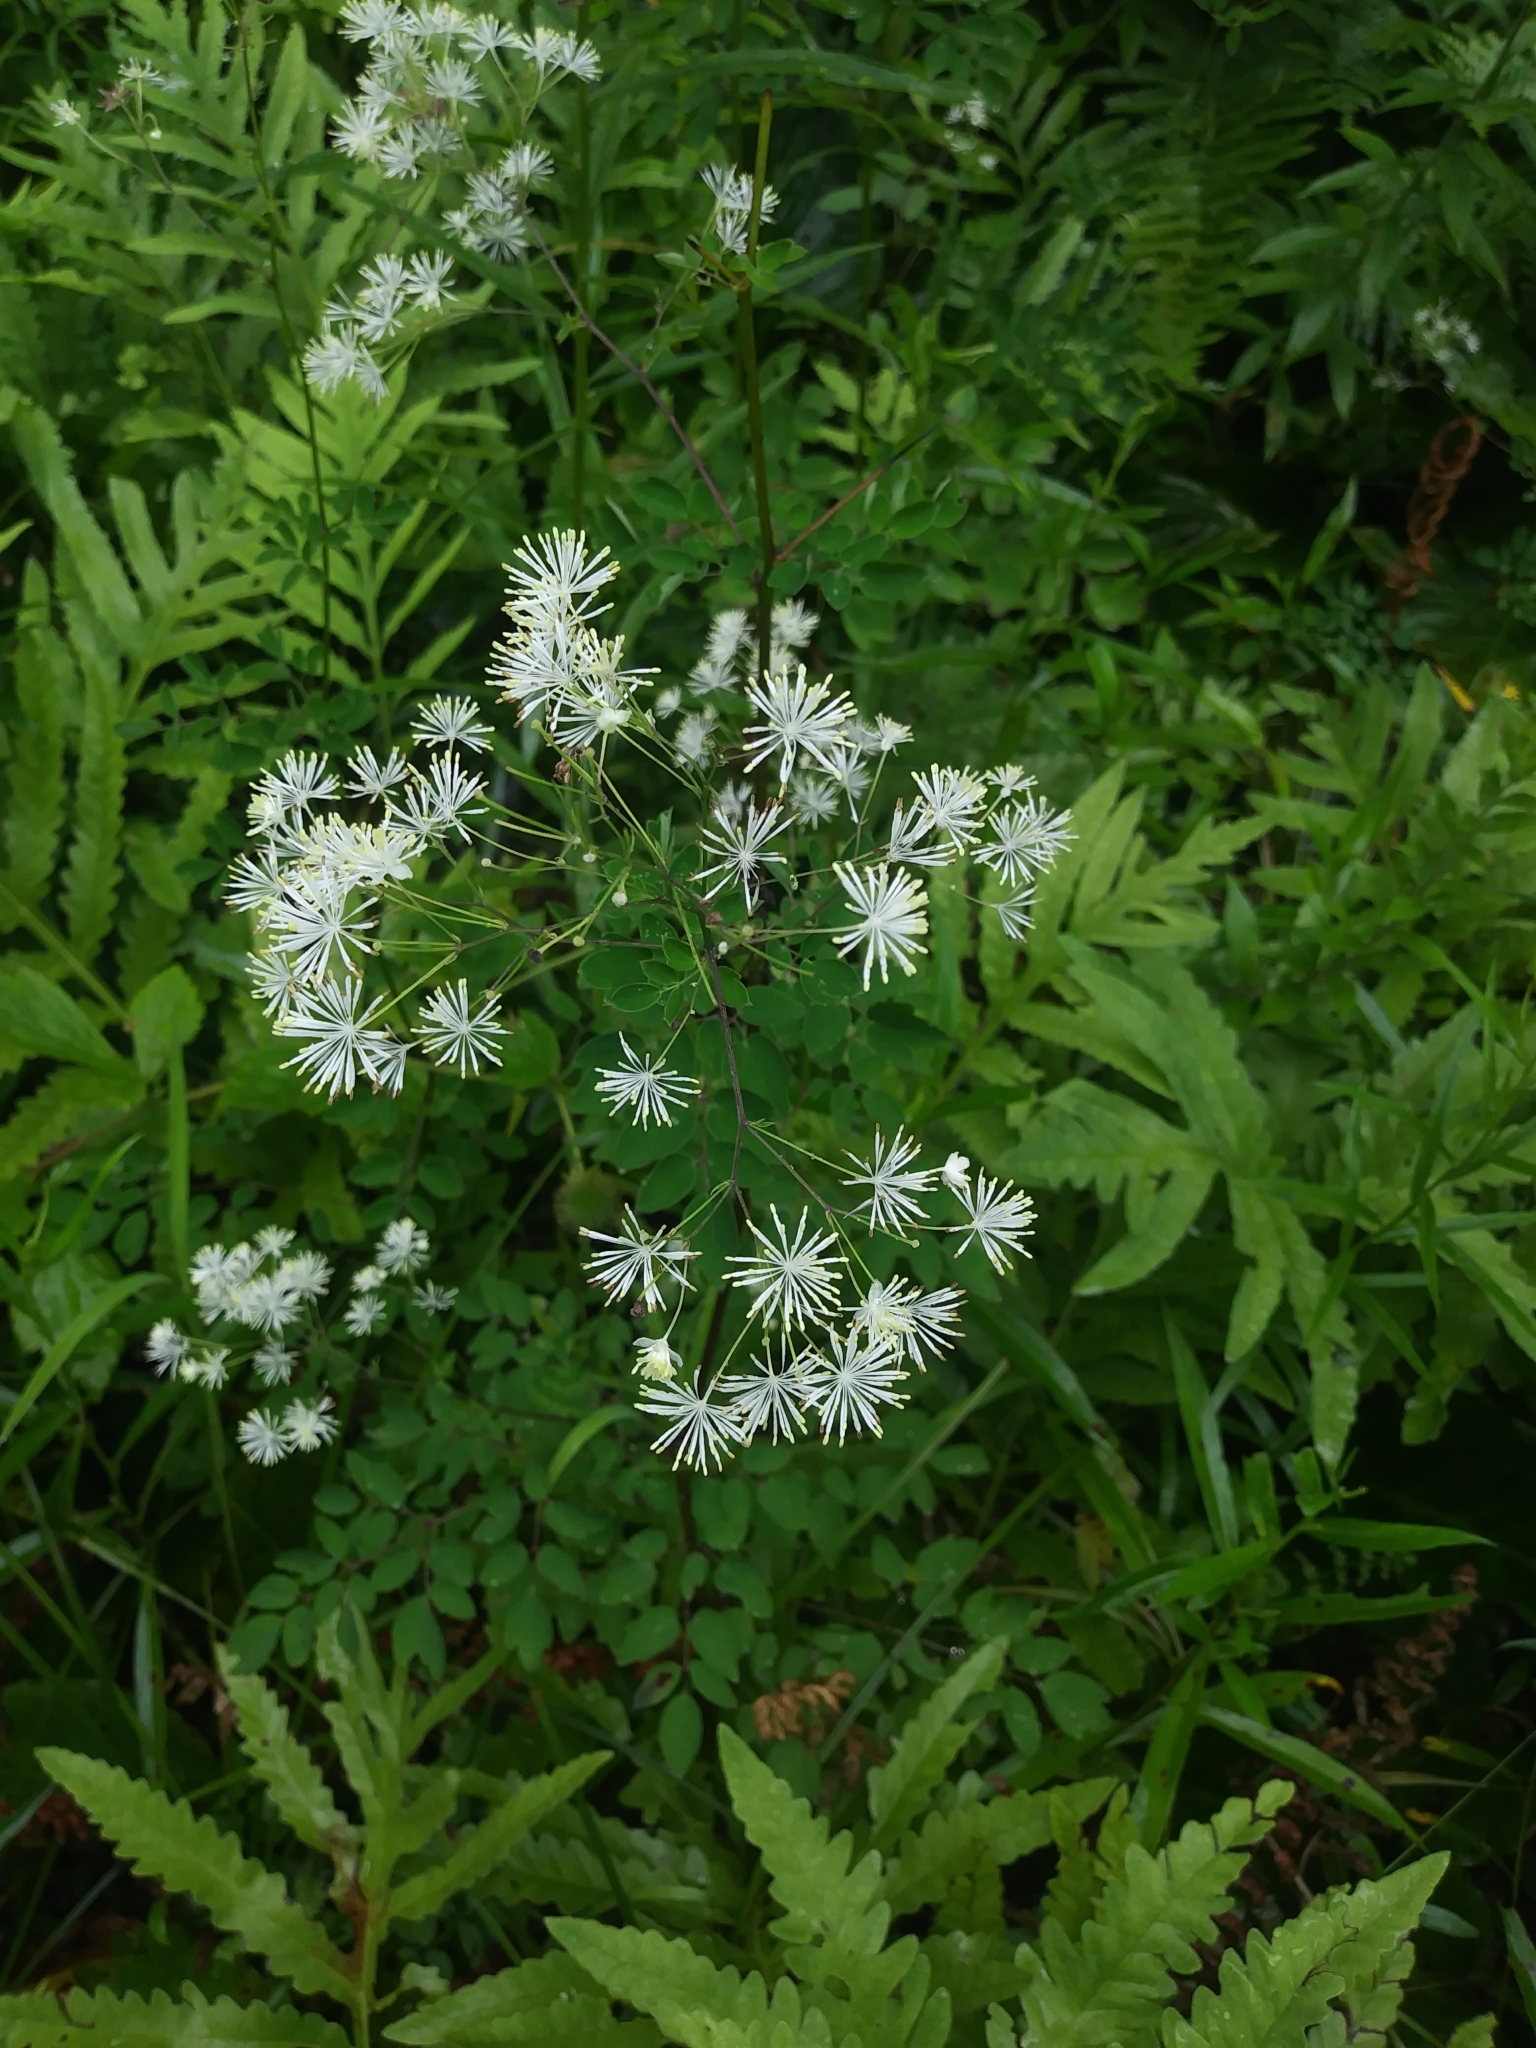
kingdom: Plantae
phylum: Tracheophyta
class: Magnoliopsida
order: Ranunculales
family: Ranunculaceae
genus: Thalictrum
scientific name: Thalictrum pubescens
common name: King-of-the-meadow
